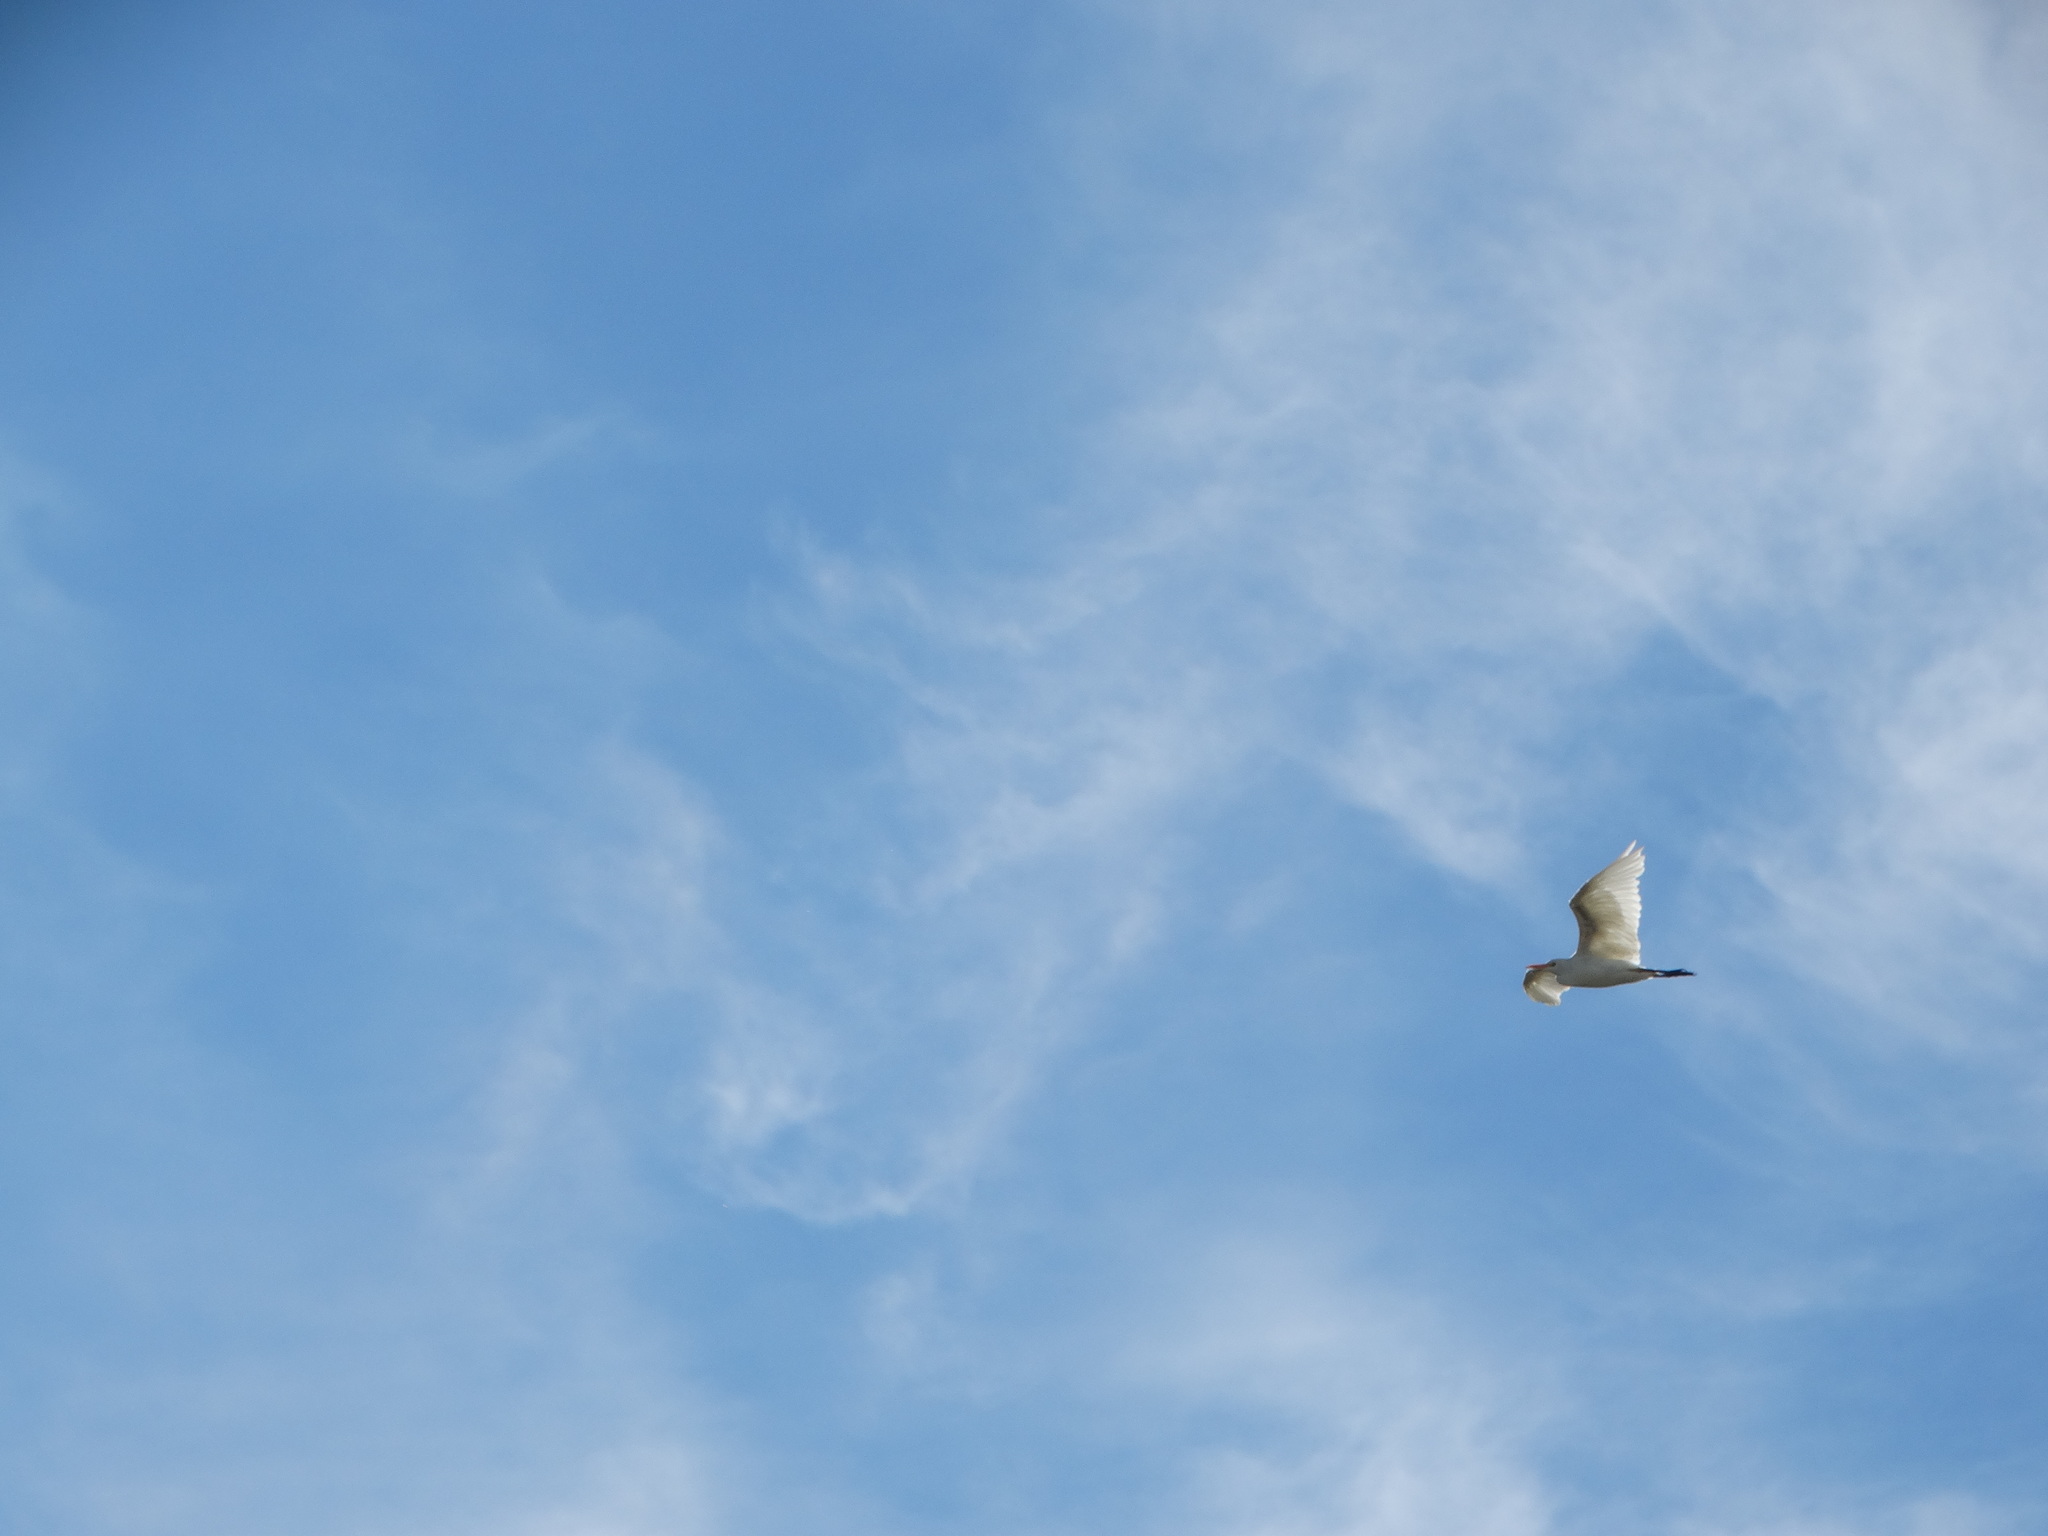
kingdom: Animalia
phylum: Chordata
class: Aves
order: Pelecaniformes
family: Ardeidae
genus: Bubulcus
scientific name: Bubulcus ibis
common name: Cattle egret
